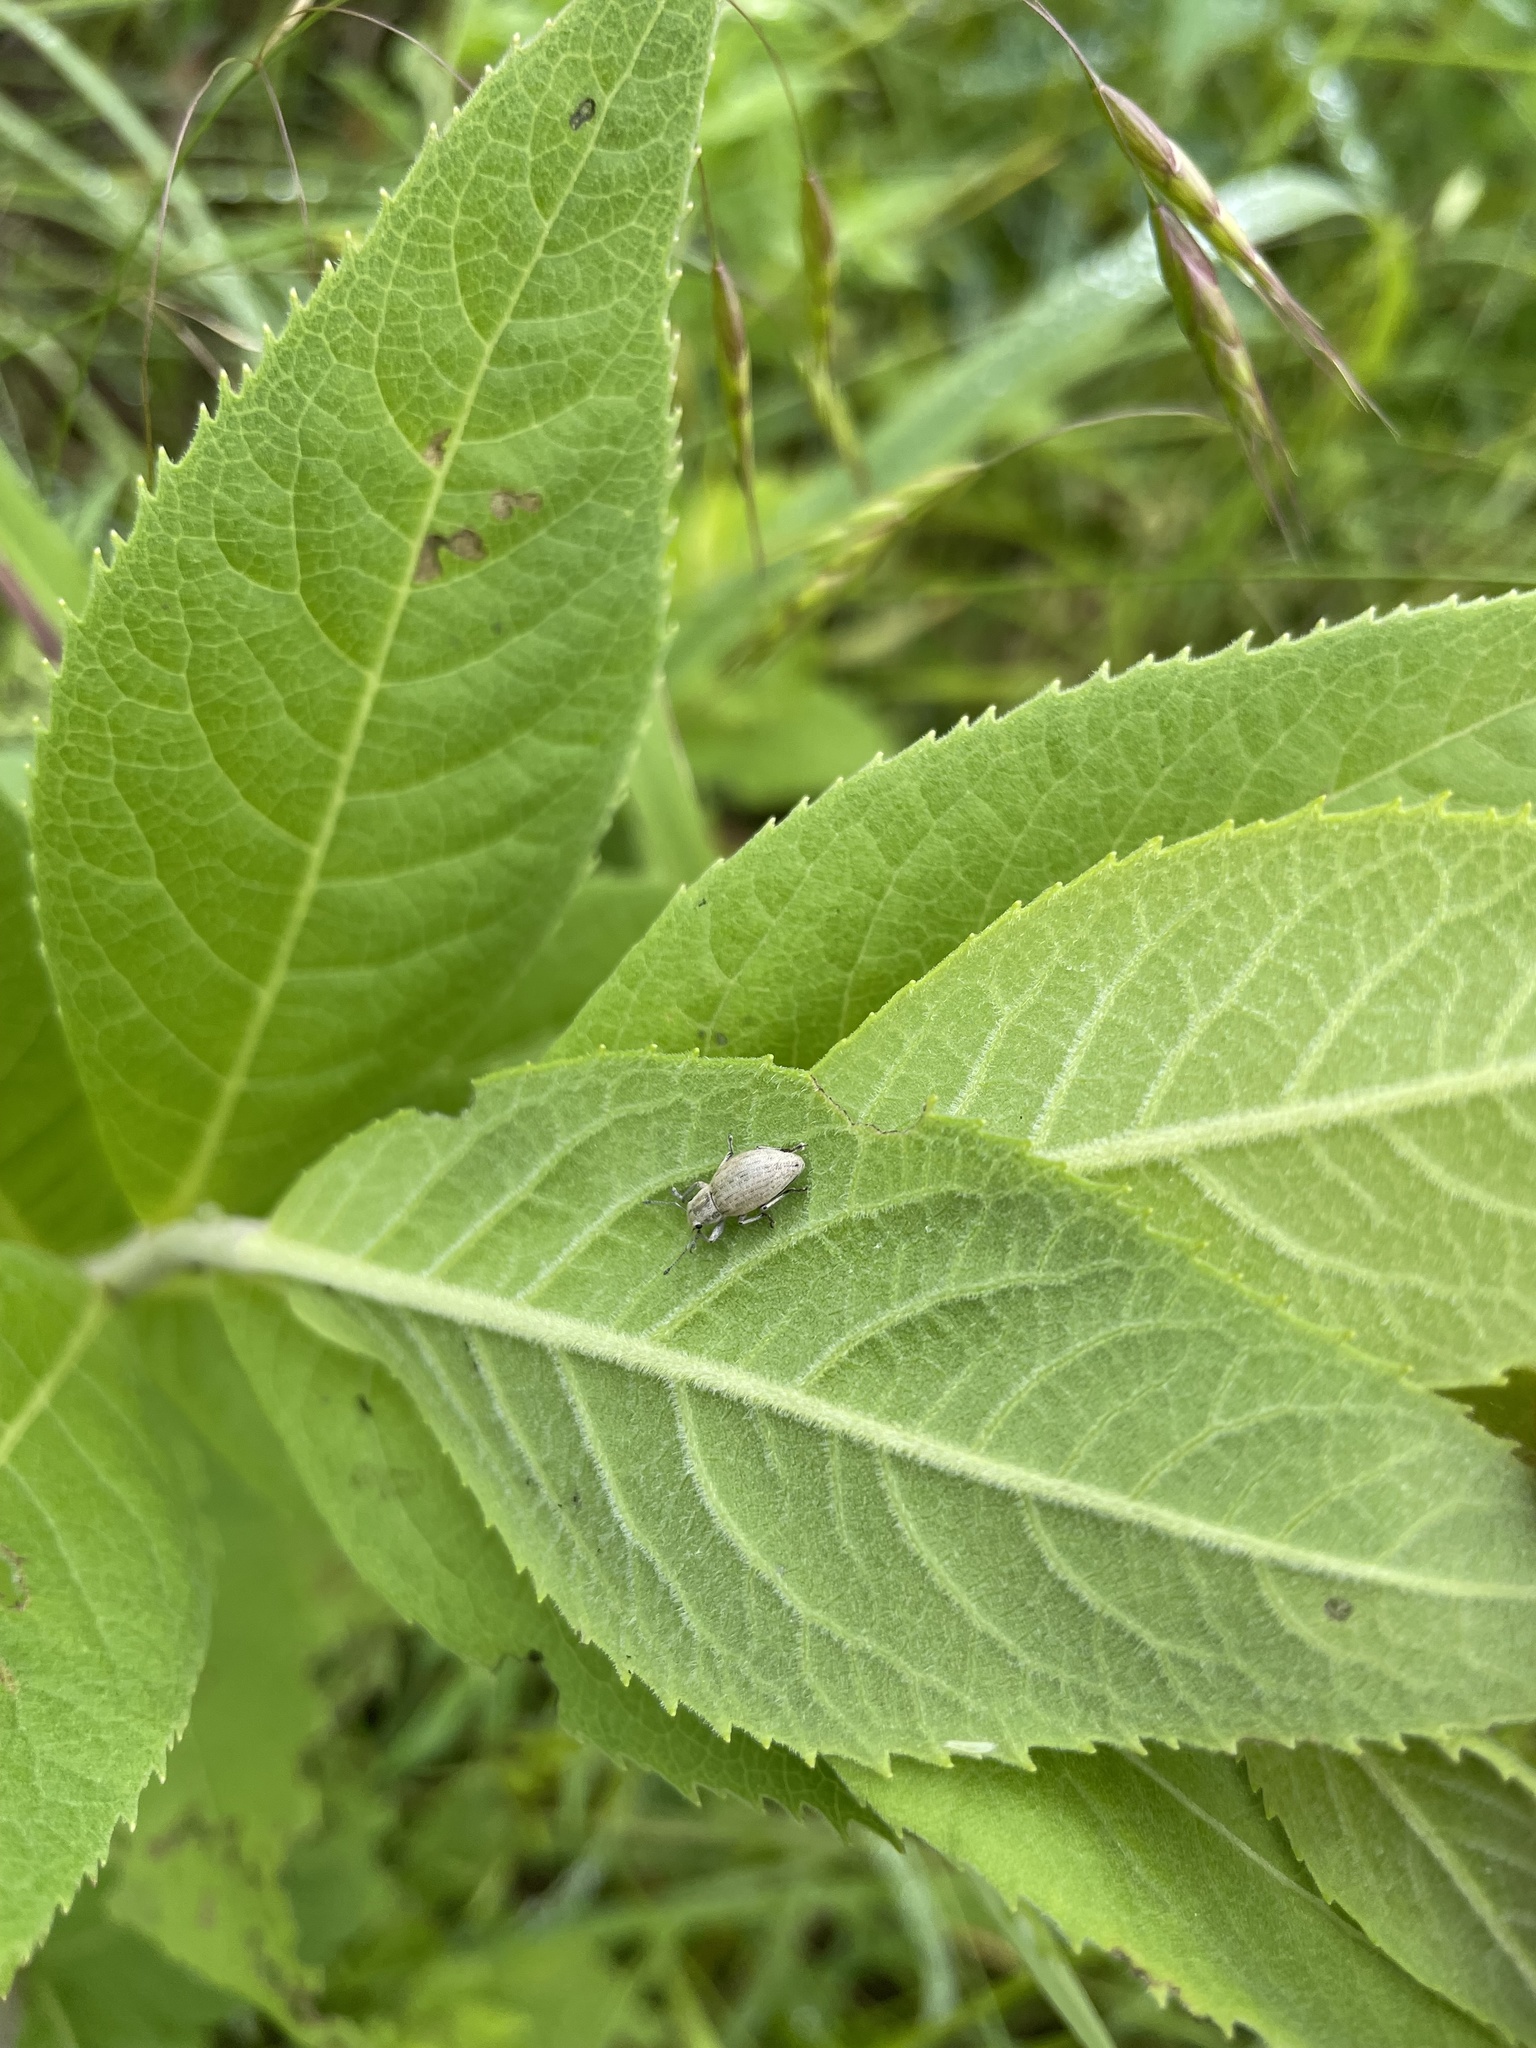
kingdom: Animalia
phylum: Arthropoda
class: Insecta
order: Coleoptera
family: Curculionidae
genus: Aramigus
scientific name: Aramigus tessellatus
